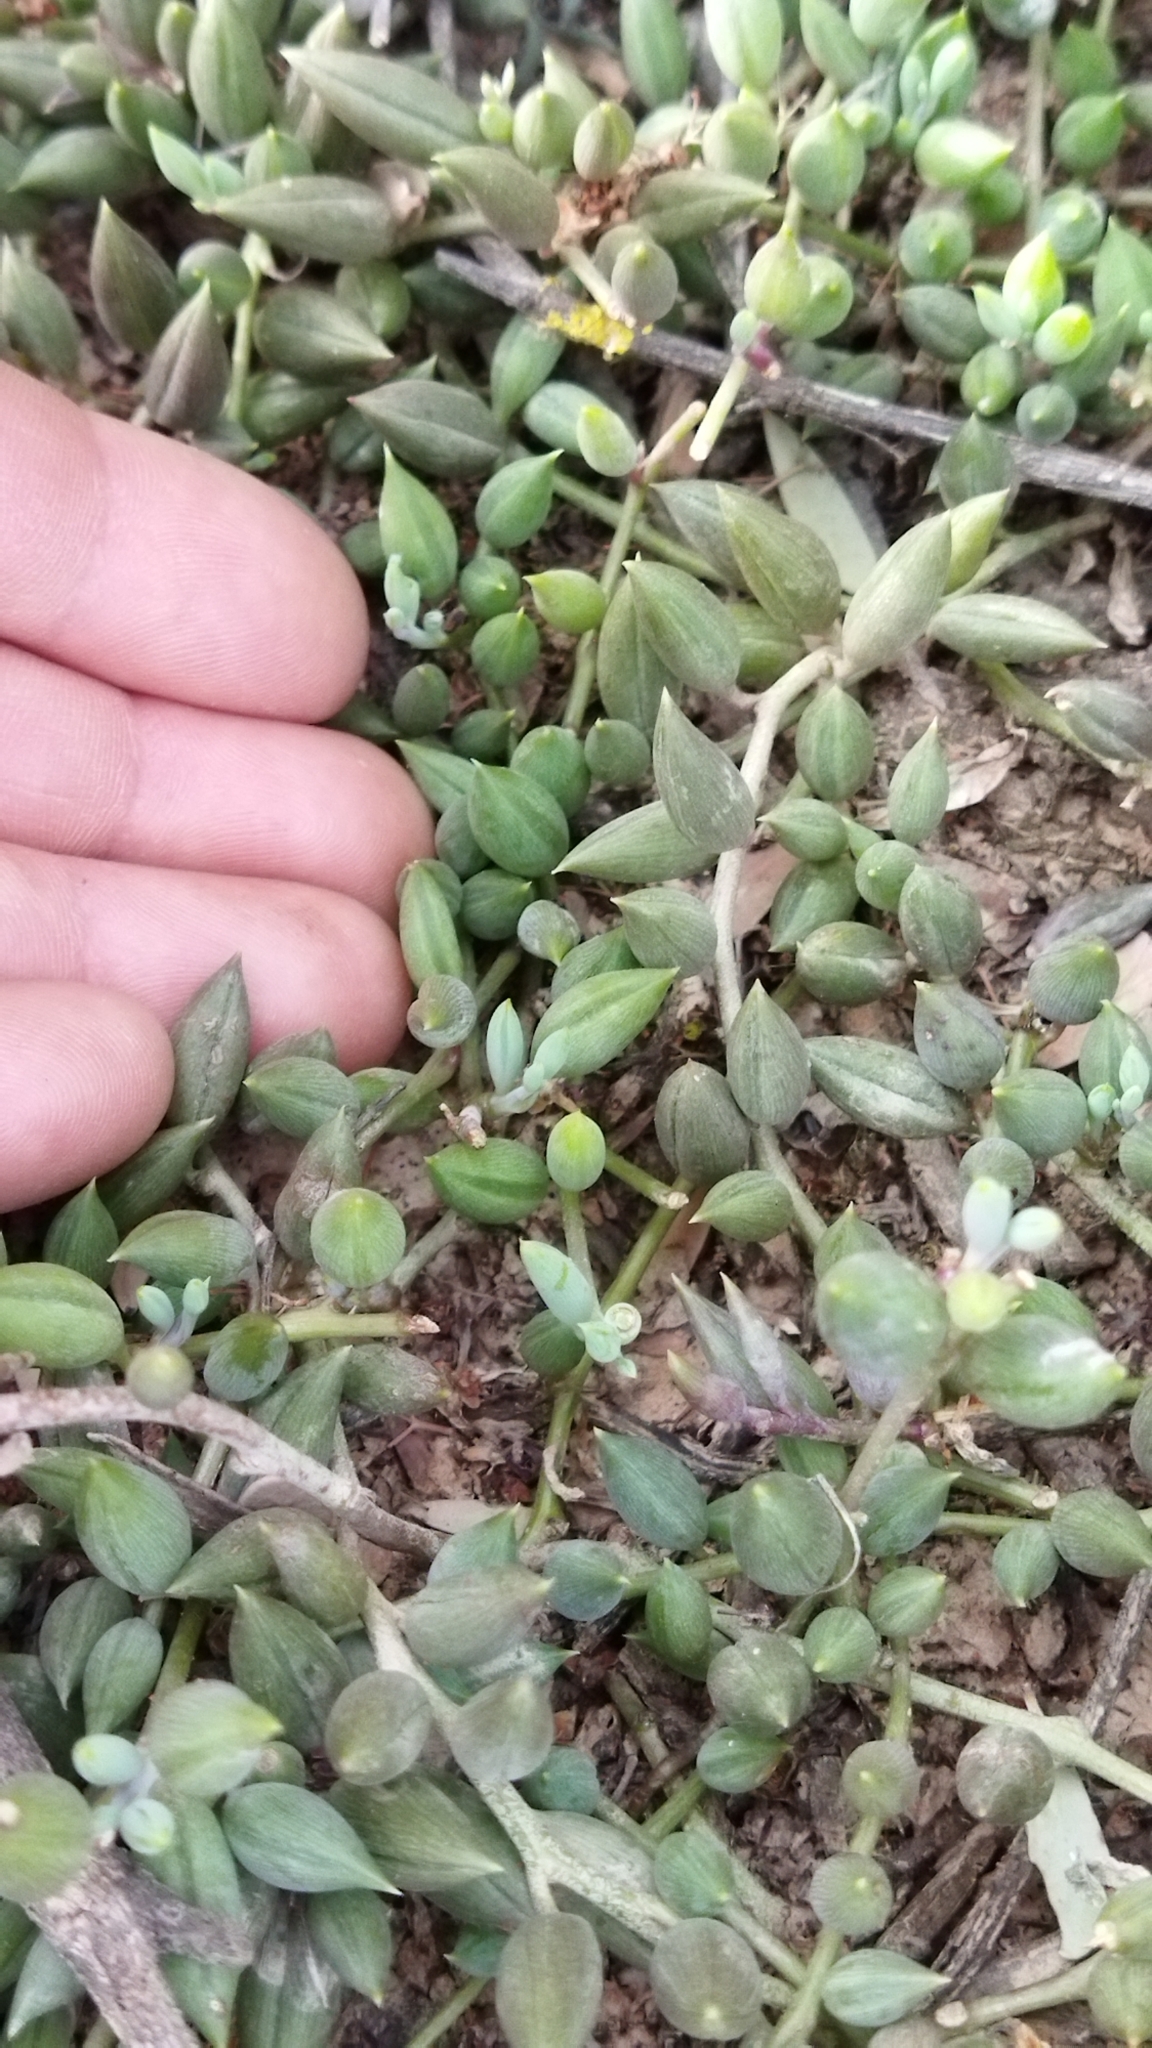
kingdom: Plantae
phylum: Tracheophyta
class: Magnoliopsida
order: Asterales
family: Asteraceae
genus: Curio
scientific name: Curio radicans
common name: Creeping-berry
